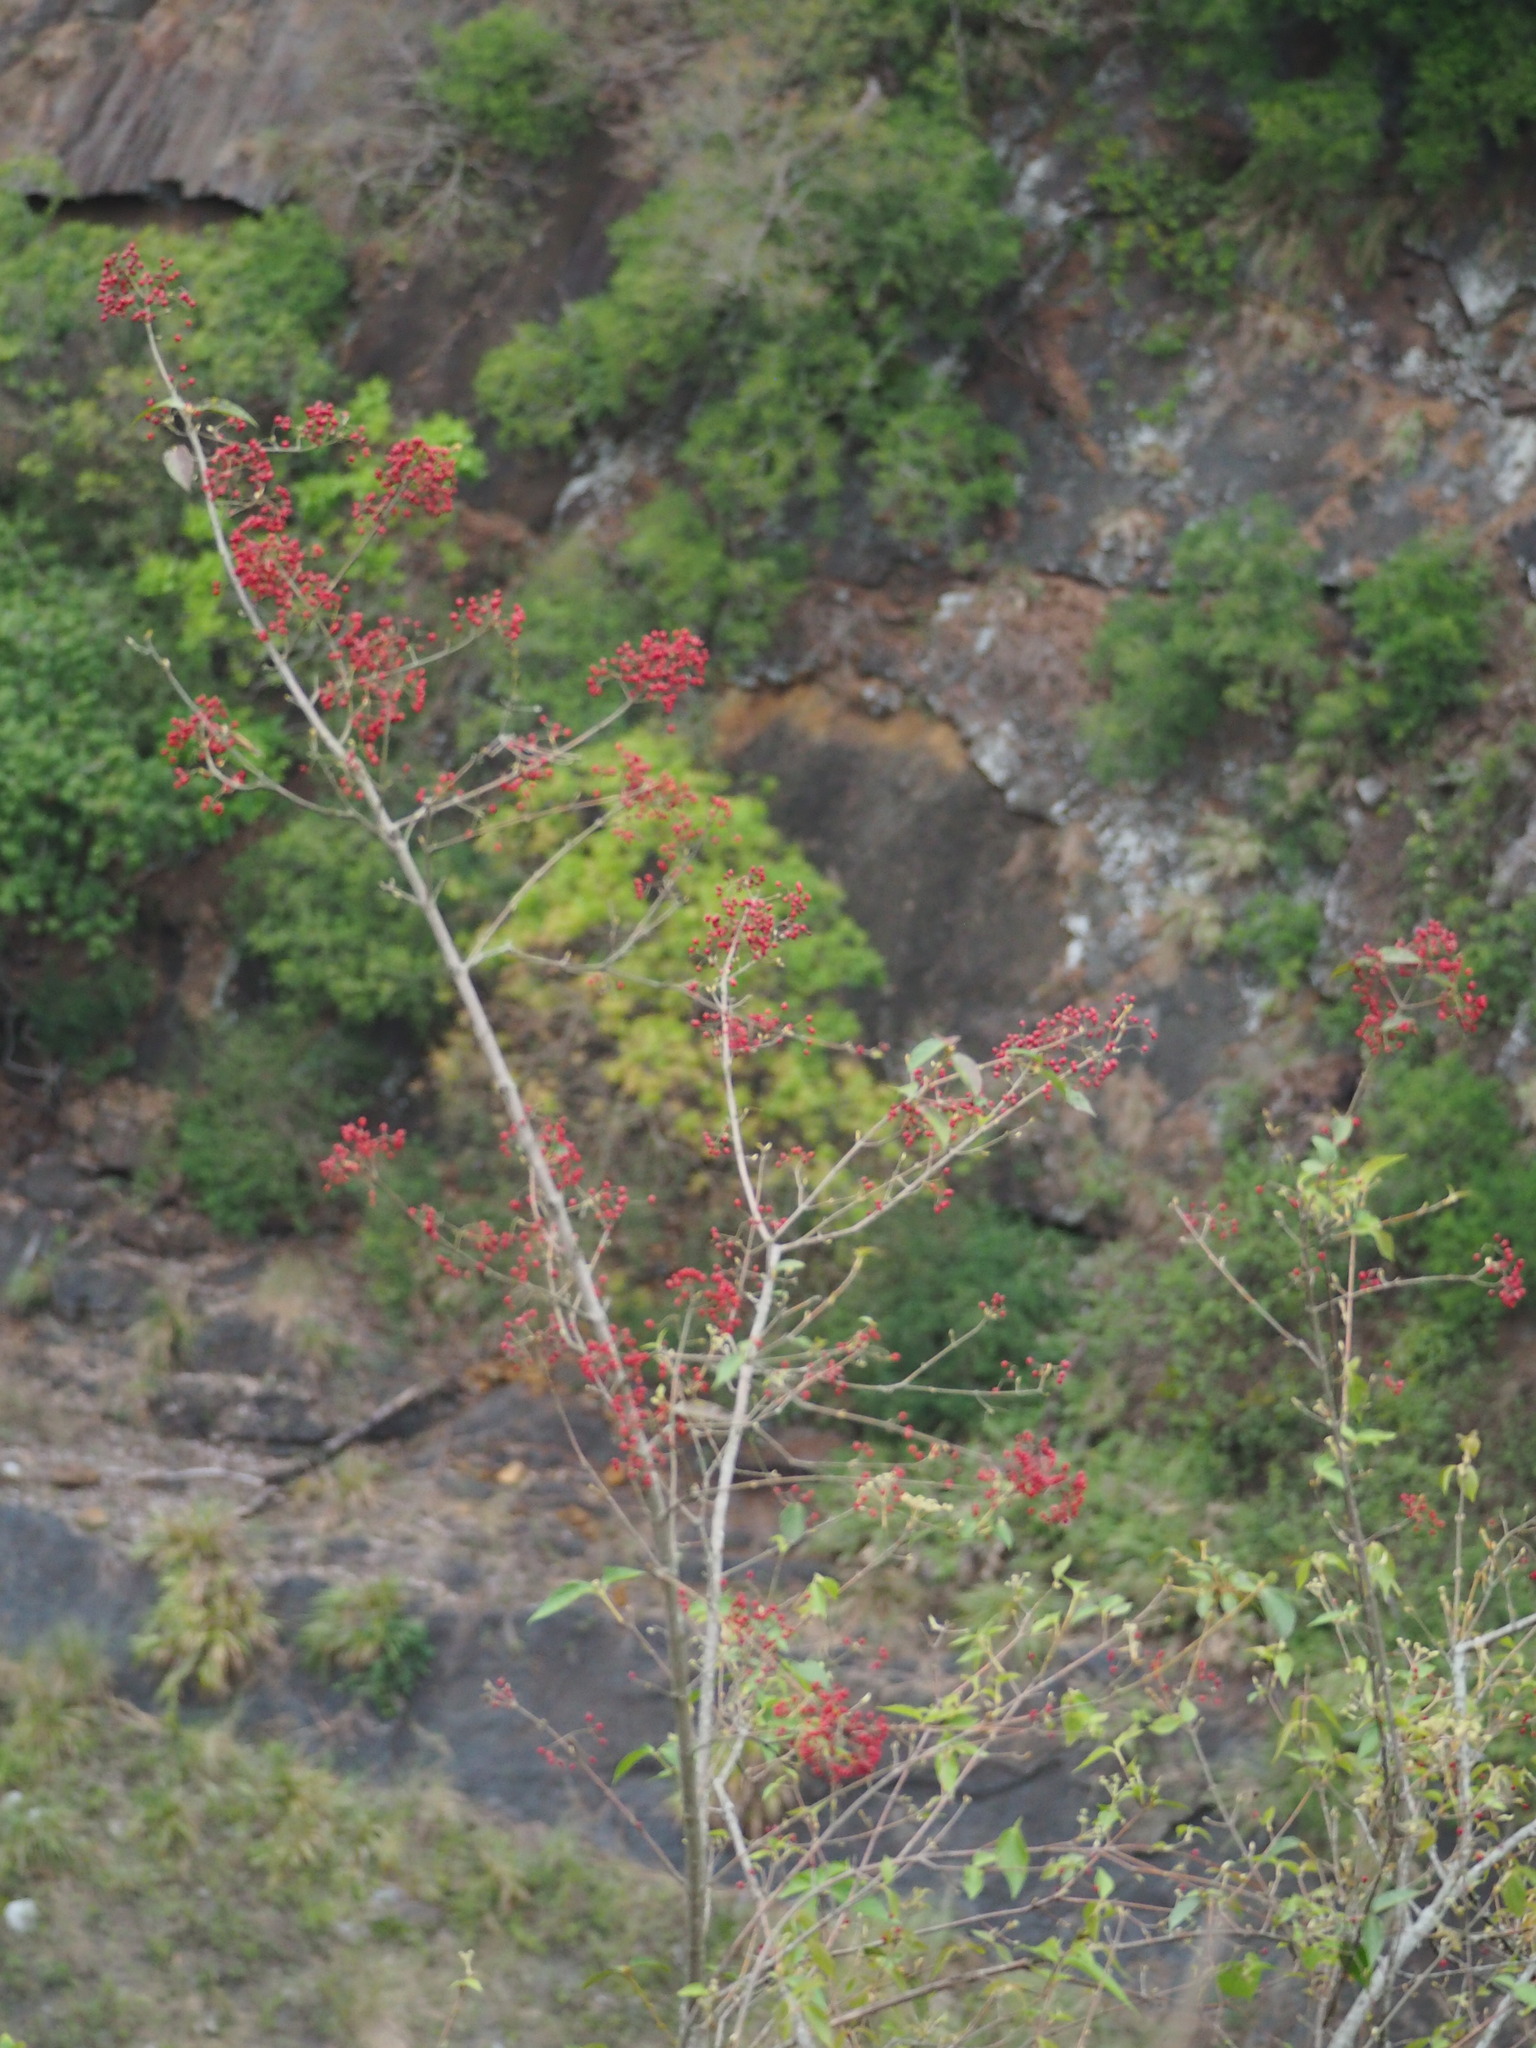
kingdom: Plantae
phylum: Tracheophyta
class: Magnoliopsida
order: Dipsacales
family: Viburnaceae
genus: Viburnum
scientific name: Viburnum luzonicum
